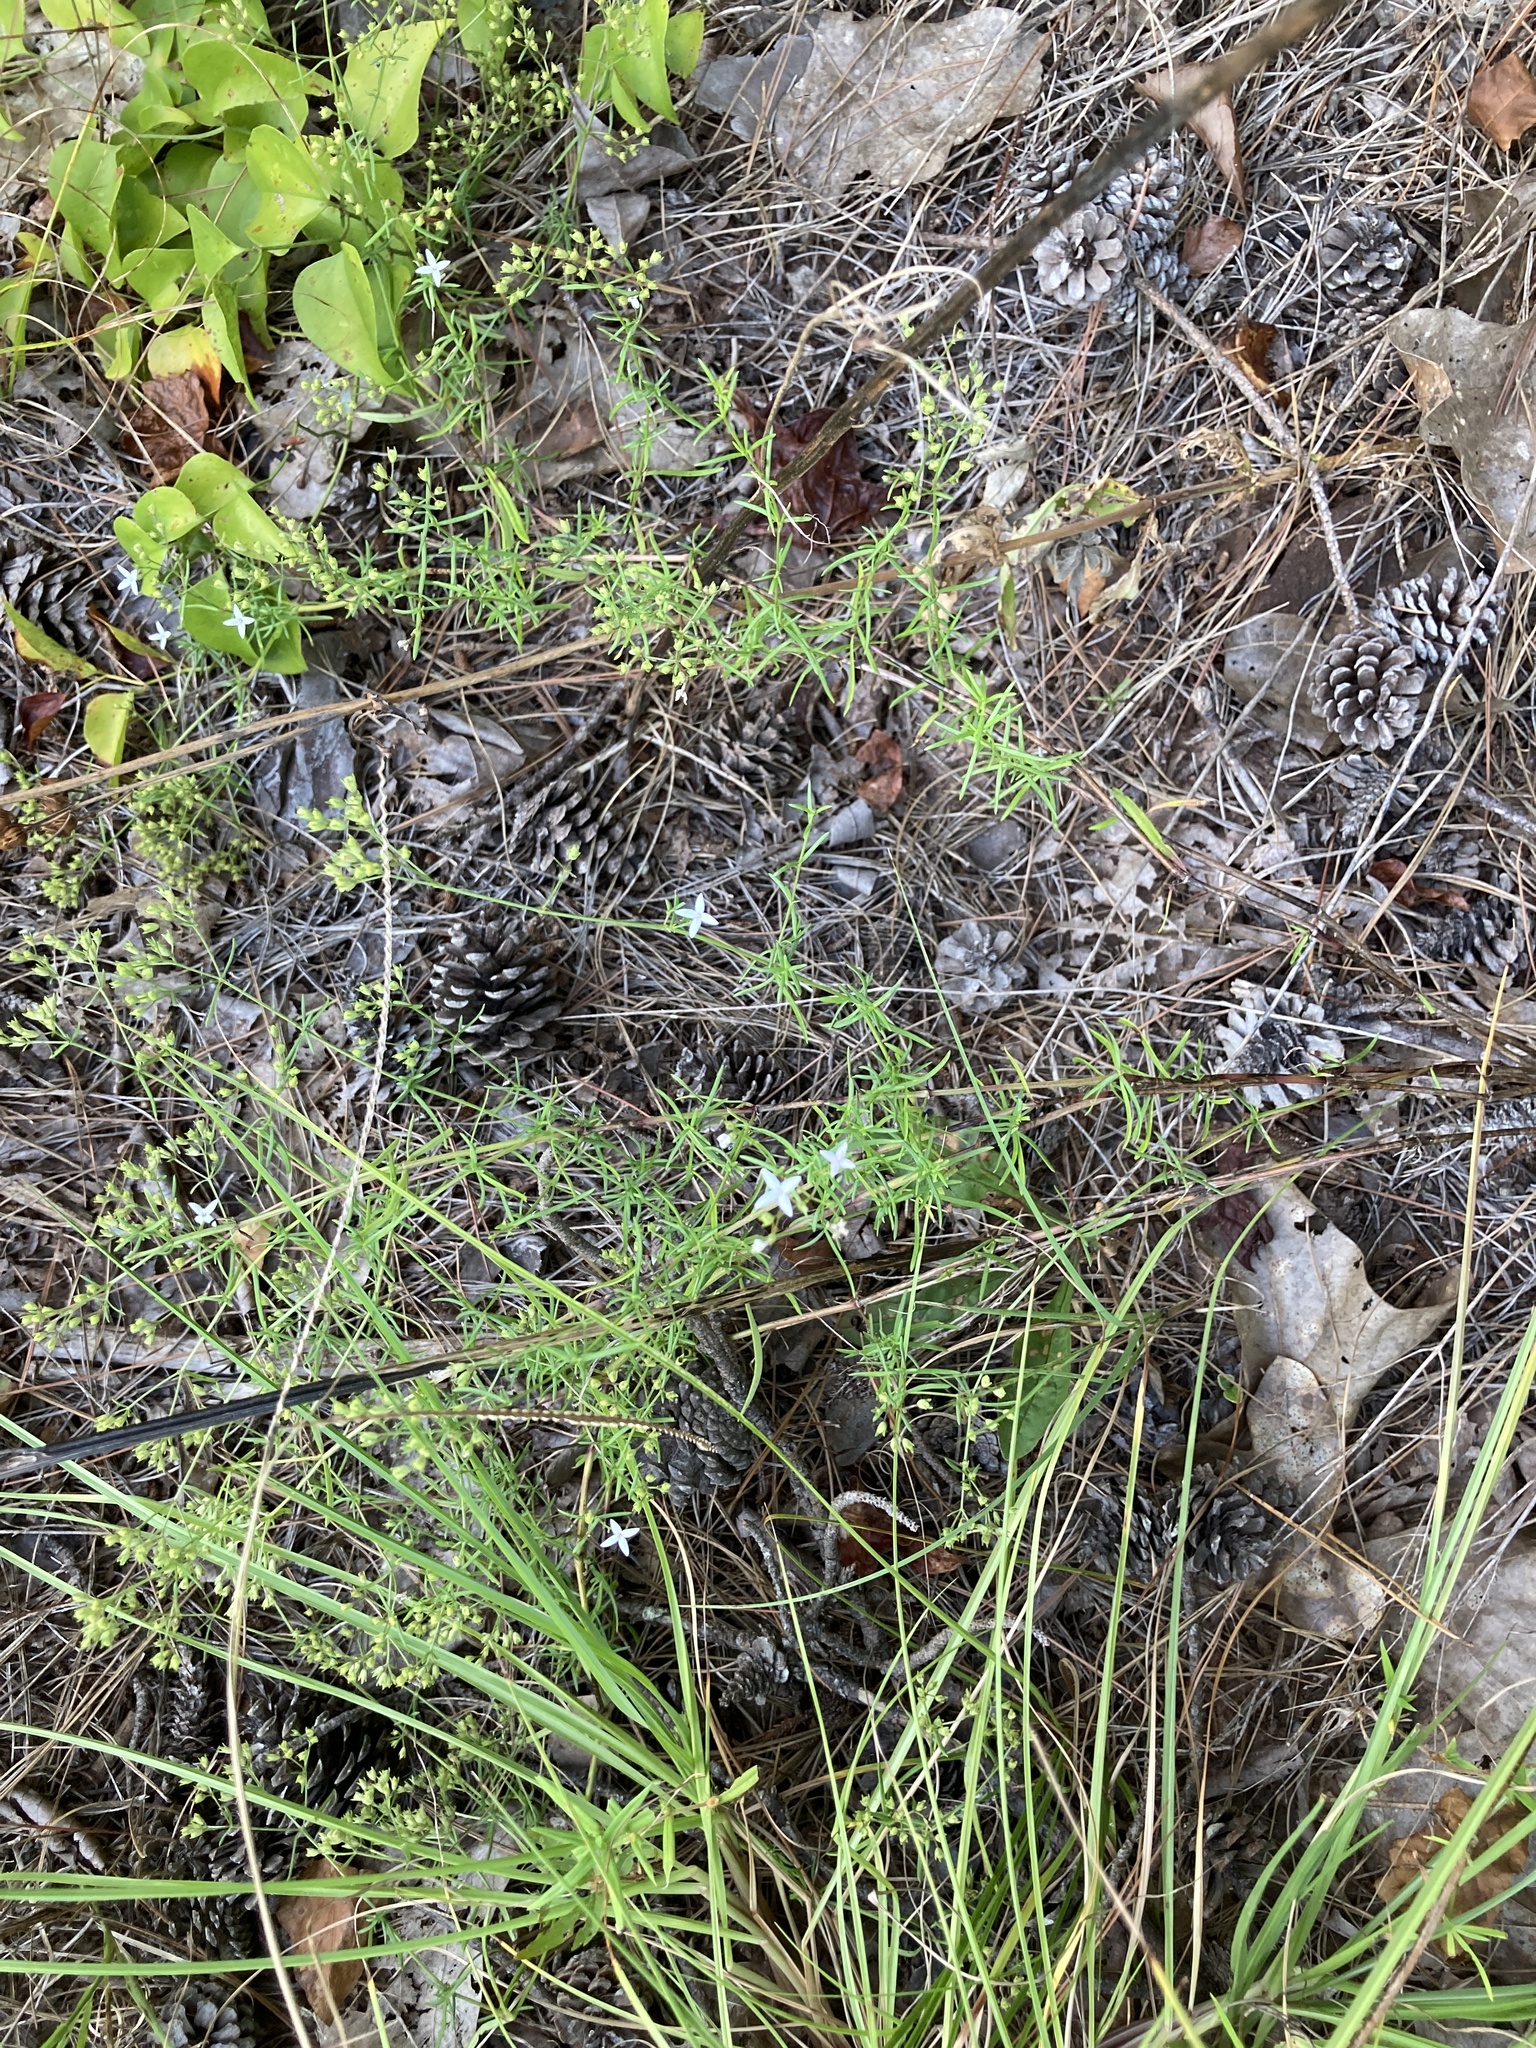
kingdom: Plantae
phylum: Tracheophyta
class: Magnoliopsida
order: Gentianales
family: Rubiaceae
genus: Stenaria
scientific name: Stenaria nigricans
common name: Diamondflowers
